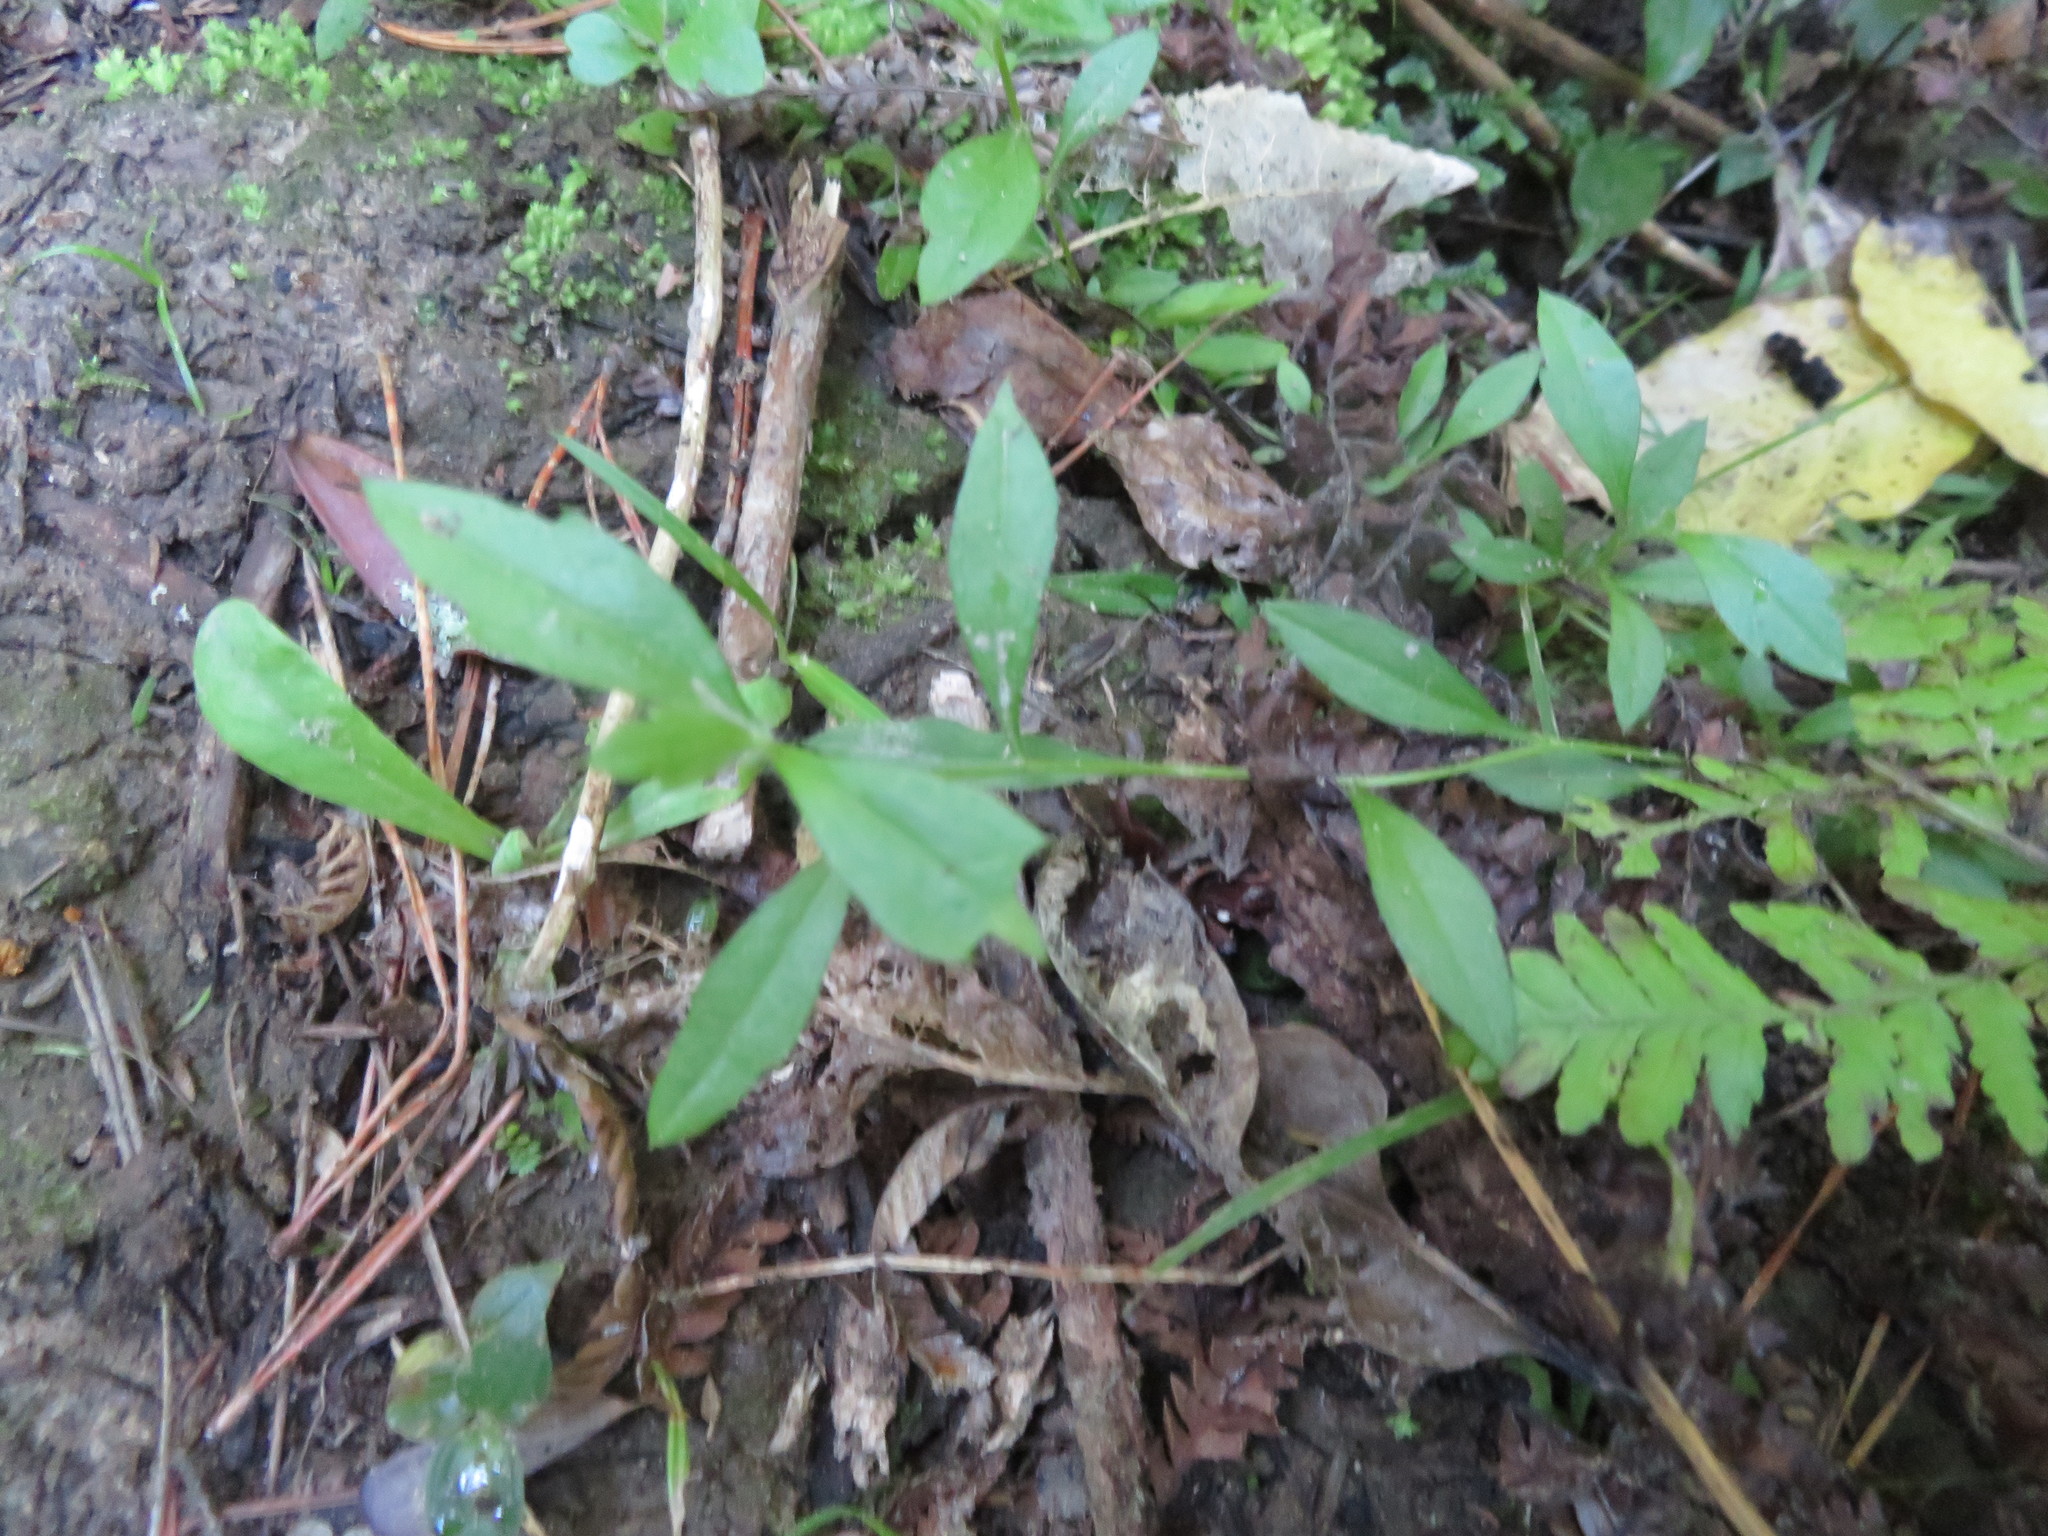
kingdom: Plantae
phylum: Tracheophyta
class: Magnoliopsida
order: Asterales
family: Asteraceae
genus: Erigeron
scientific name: Erigeron karvinskianus
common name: Mexican fleabane
